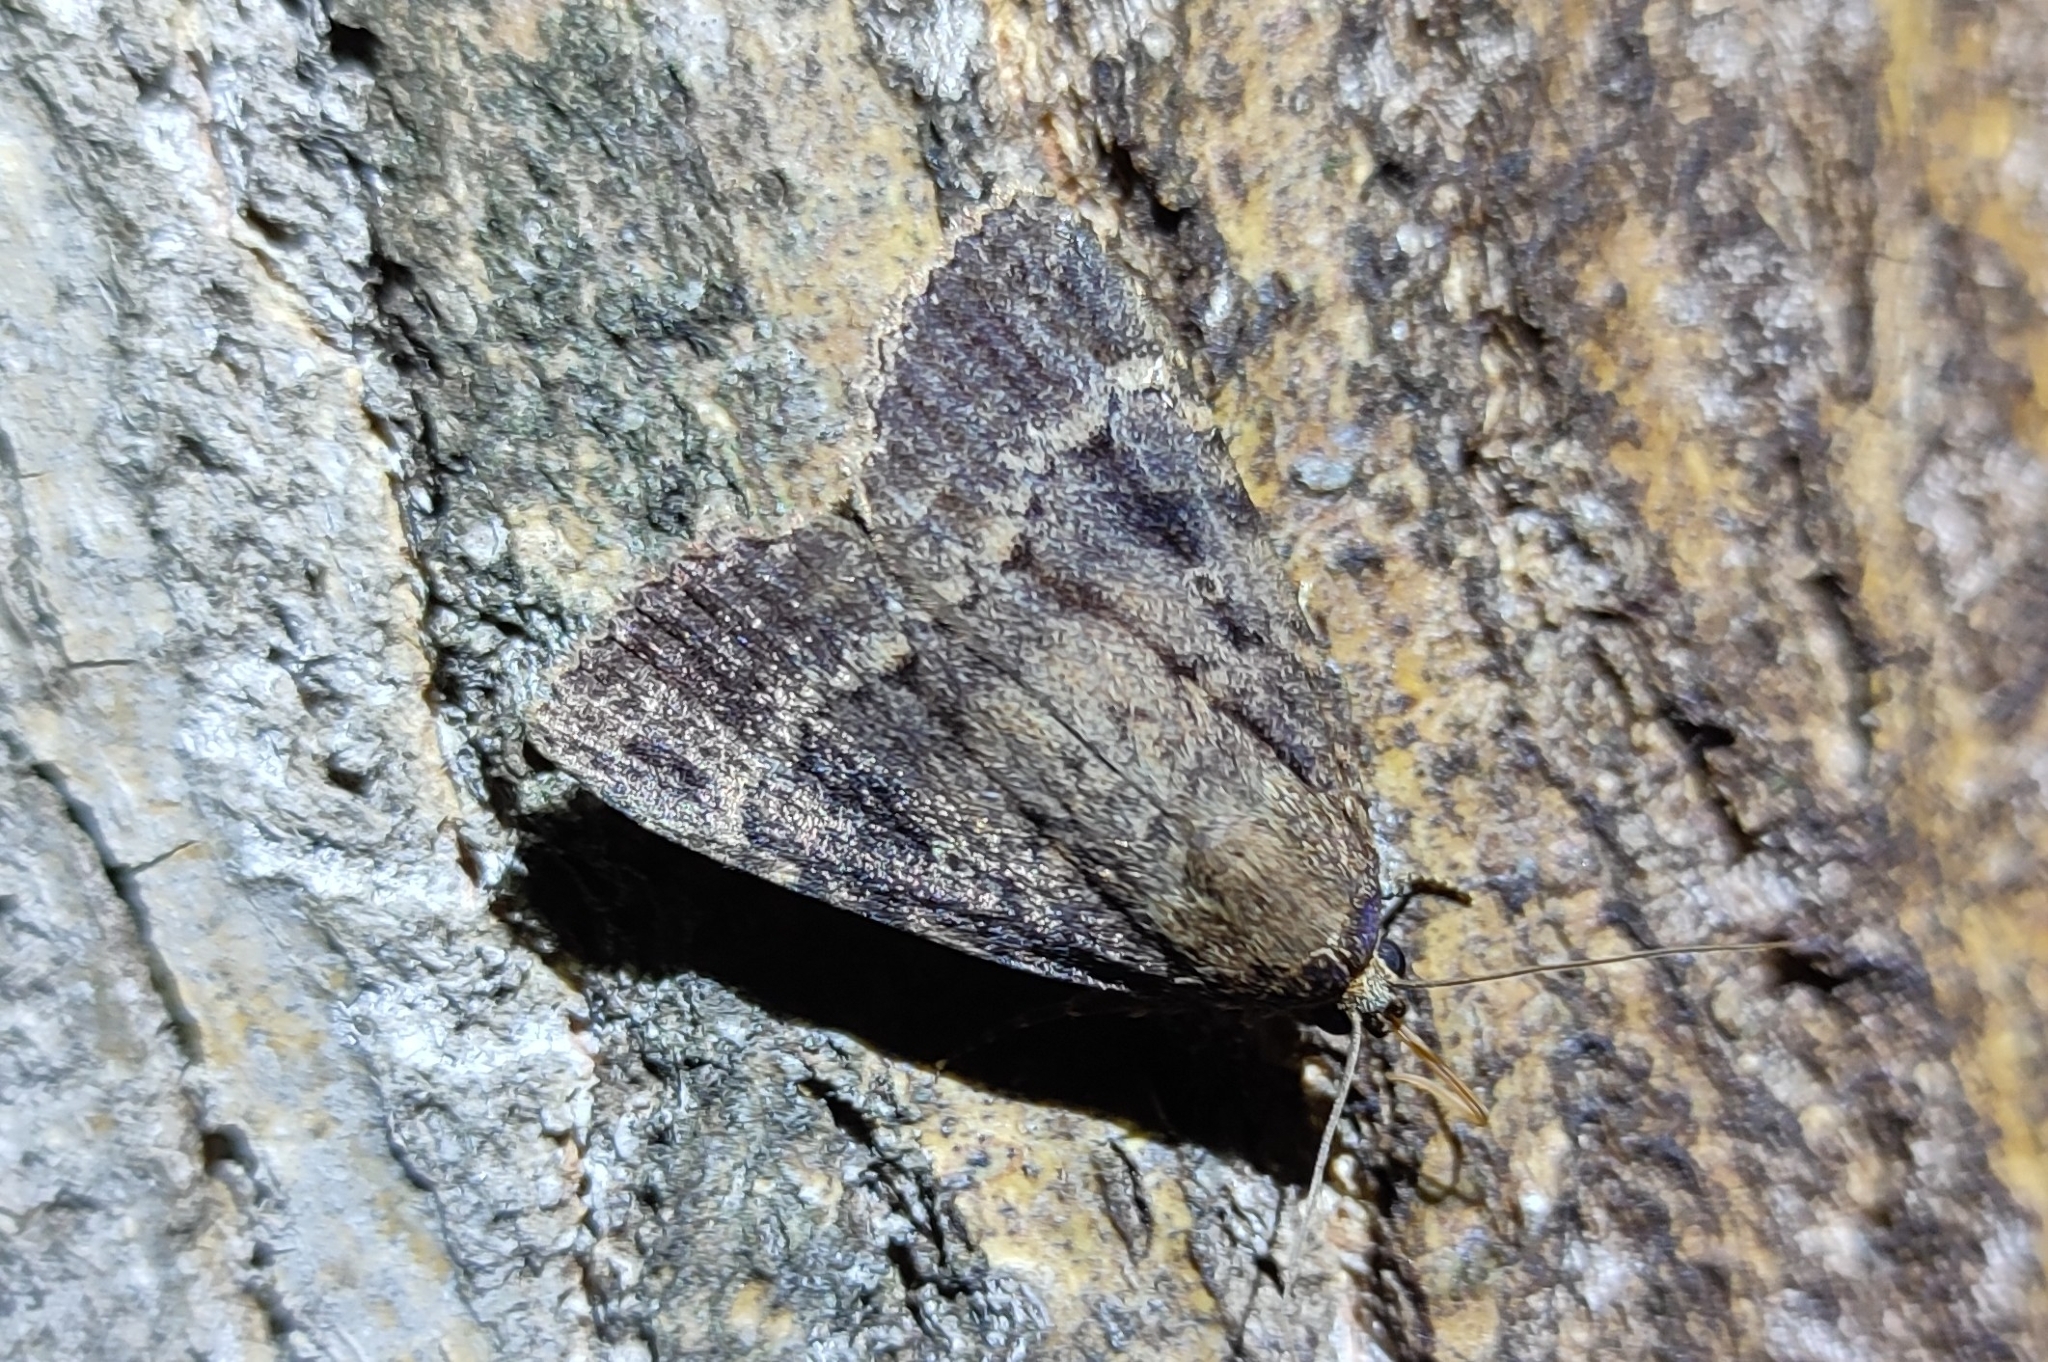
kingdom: Animalia
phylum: Arthropoda
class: Insecta
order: Lepidoptera
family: Noctuidae
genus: Amphipyra
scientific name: Amphipyra pyramidea
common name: Copper underwing
